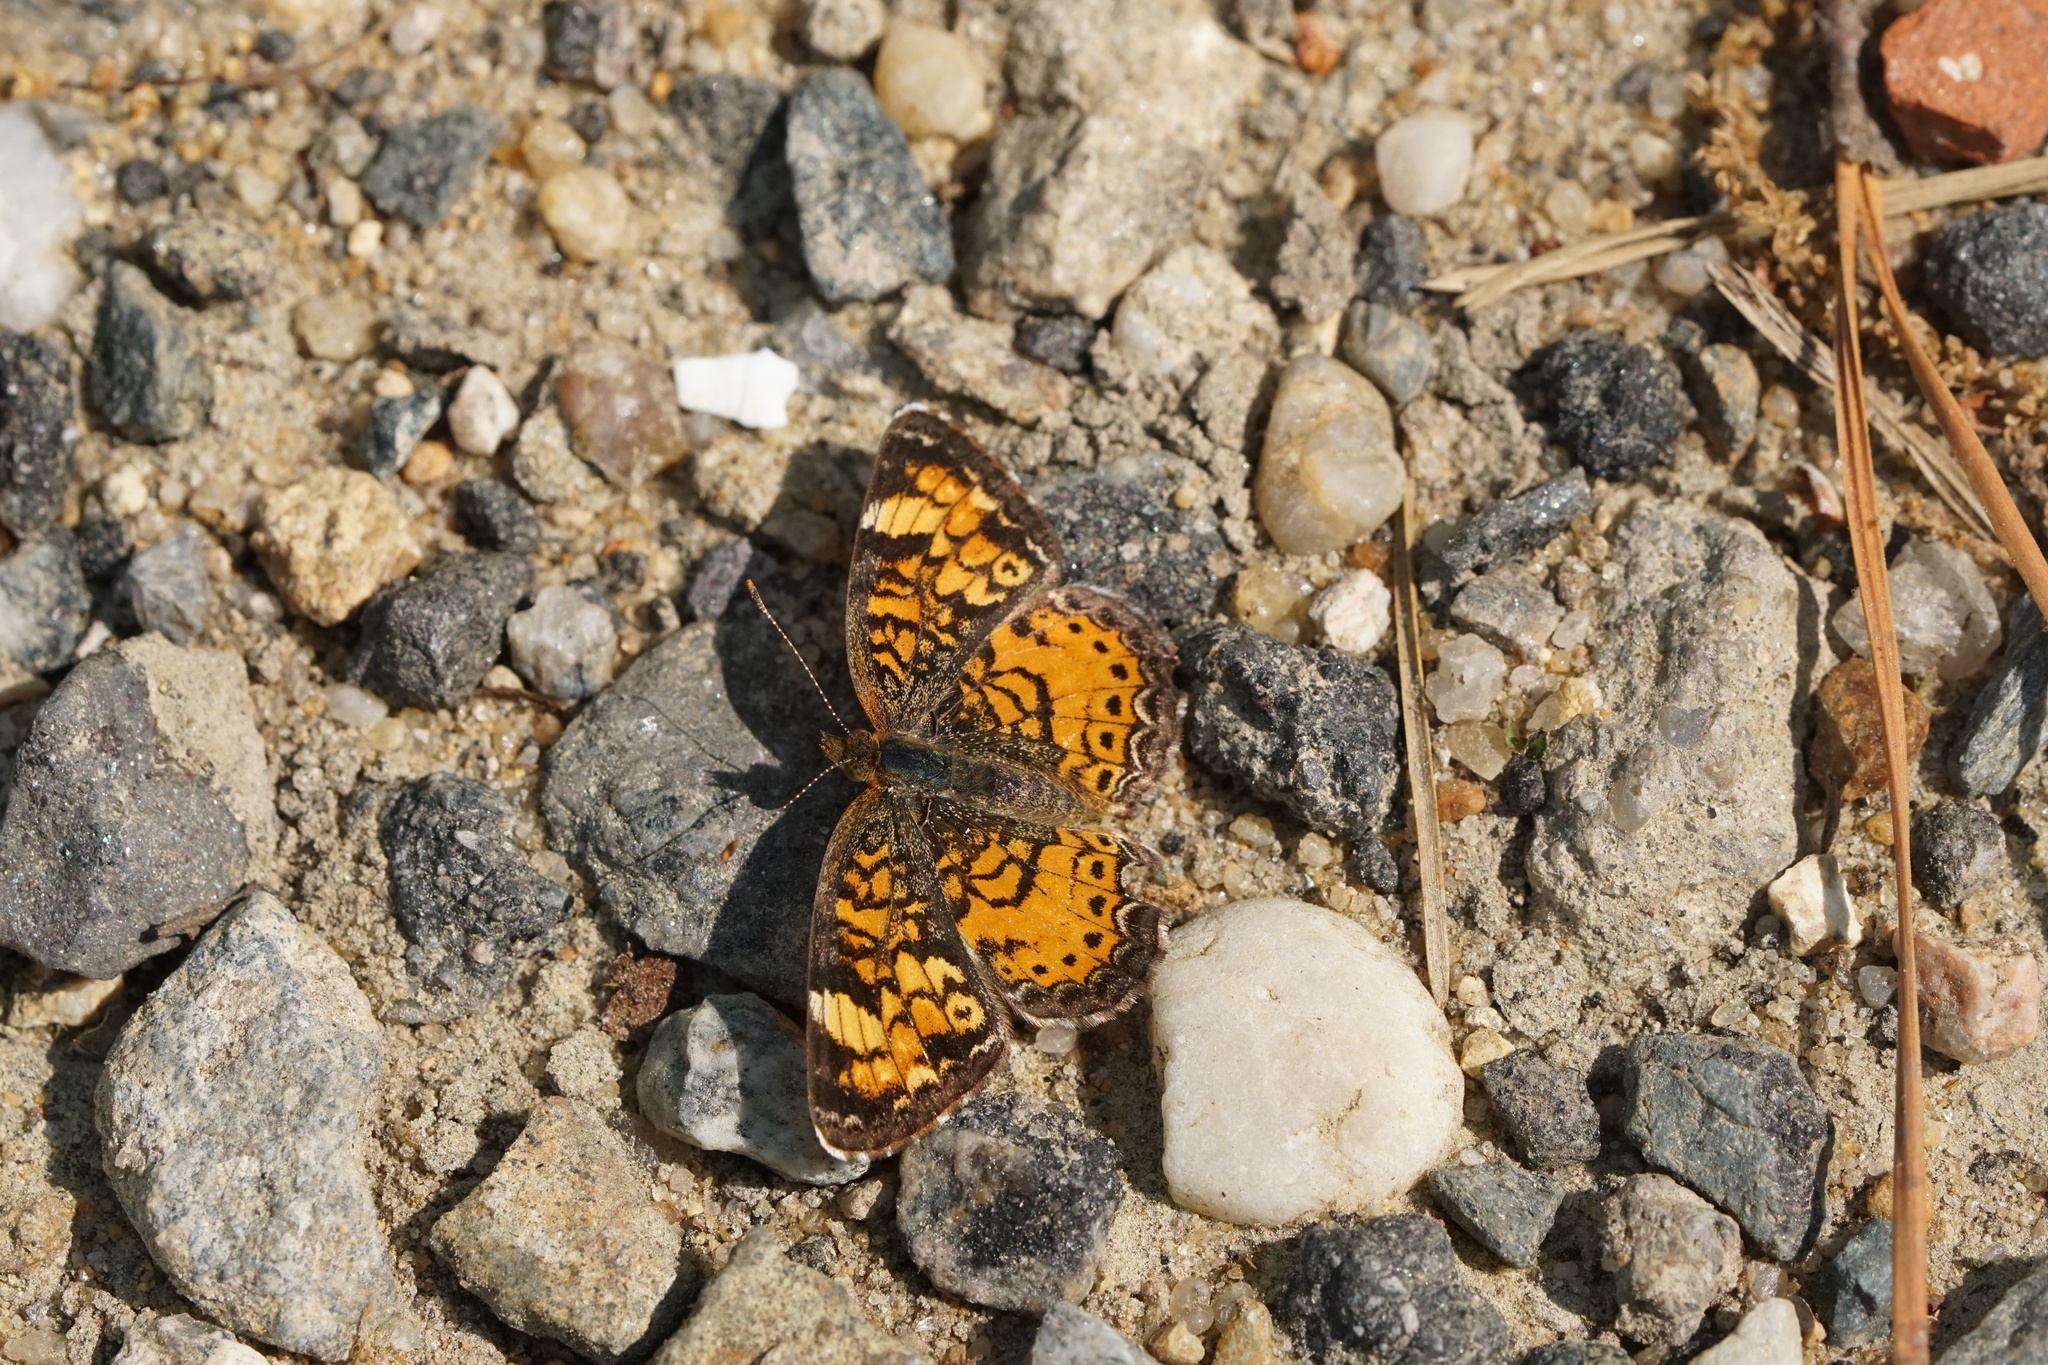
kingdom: Animalia
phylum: Arthropoda
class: Insecta
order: Lepidoptera
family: Nymphalidae
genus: Phyciodes
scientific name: Phyciodes tharos
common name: Pearl crescent
